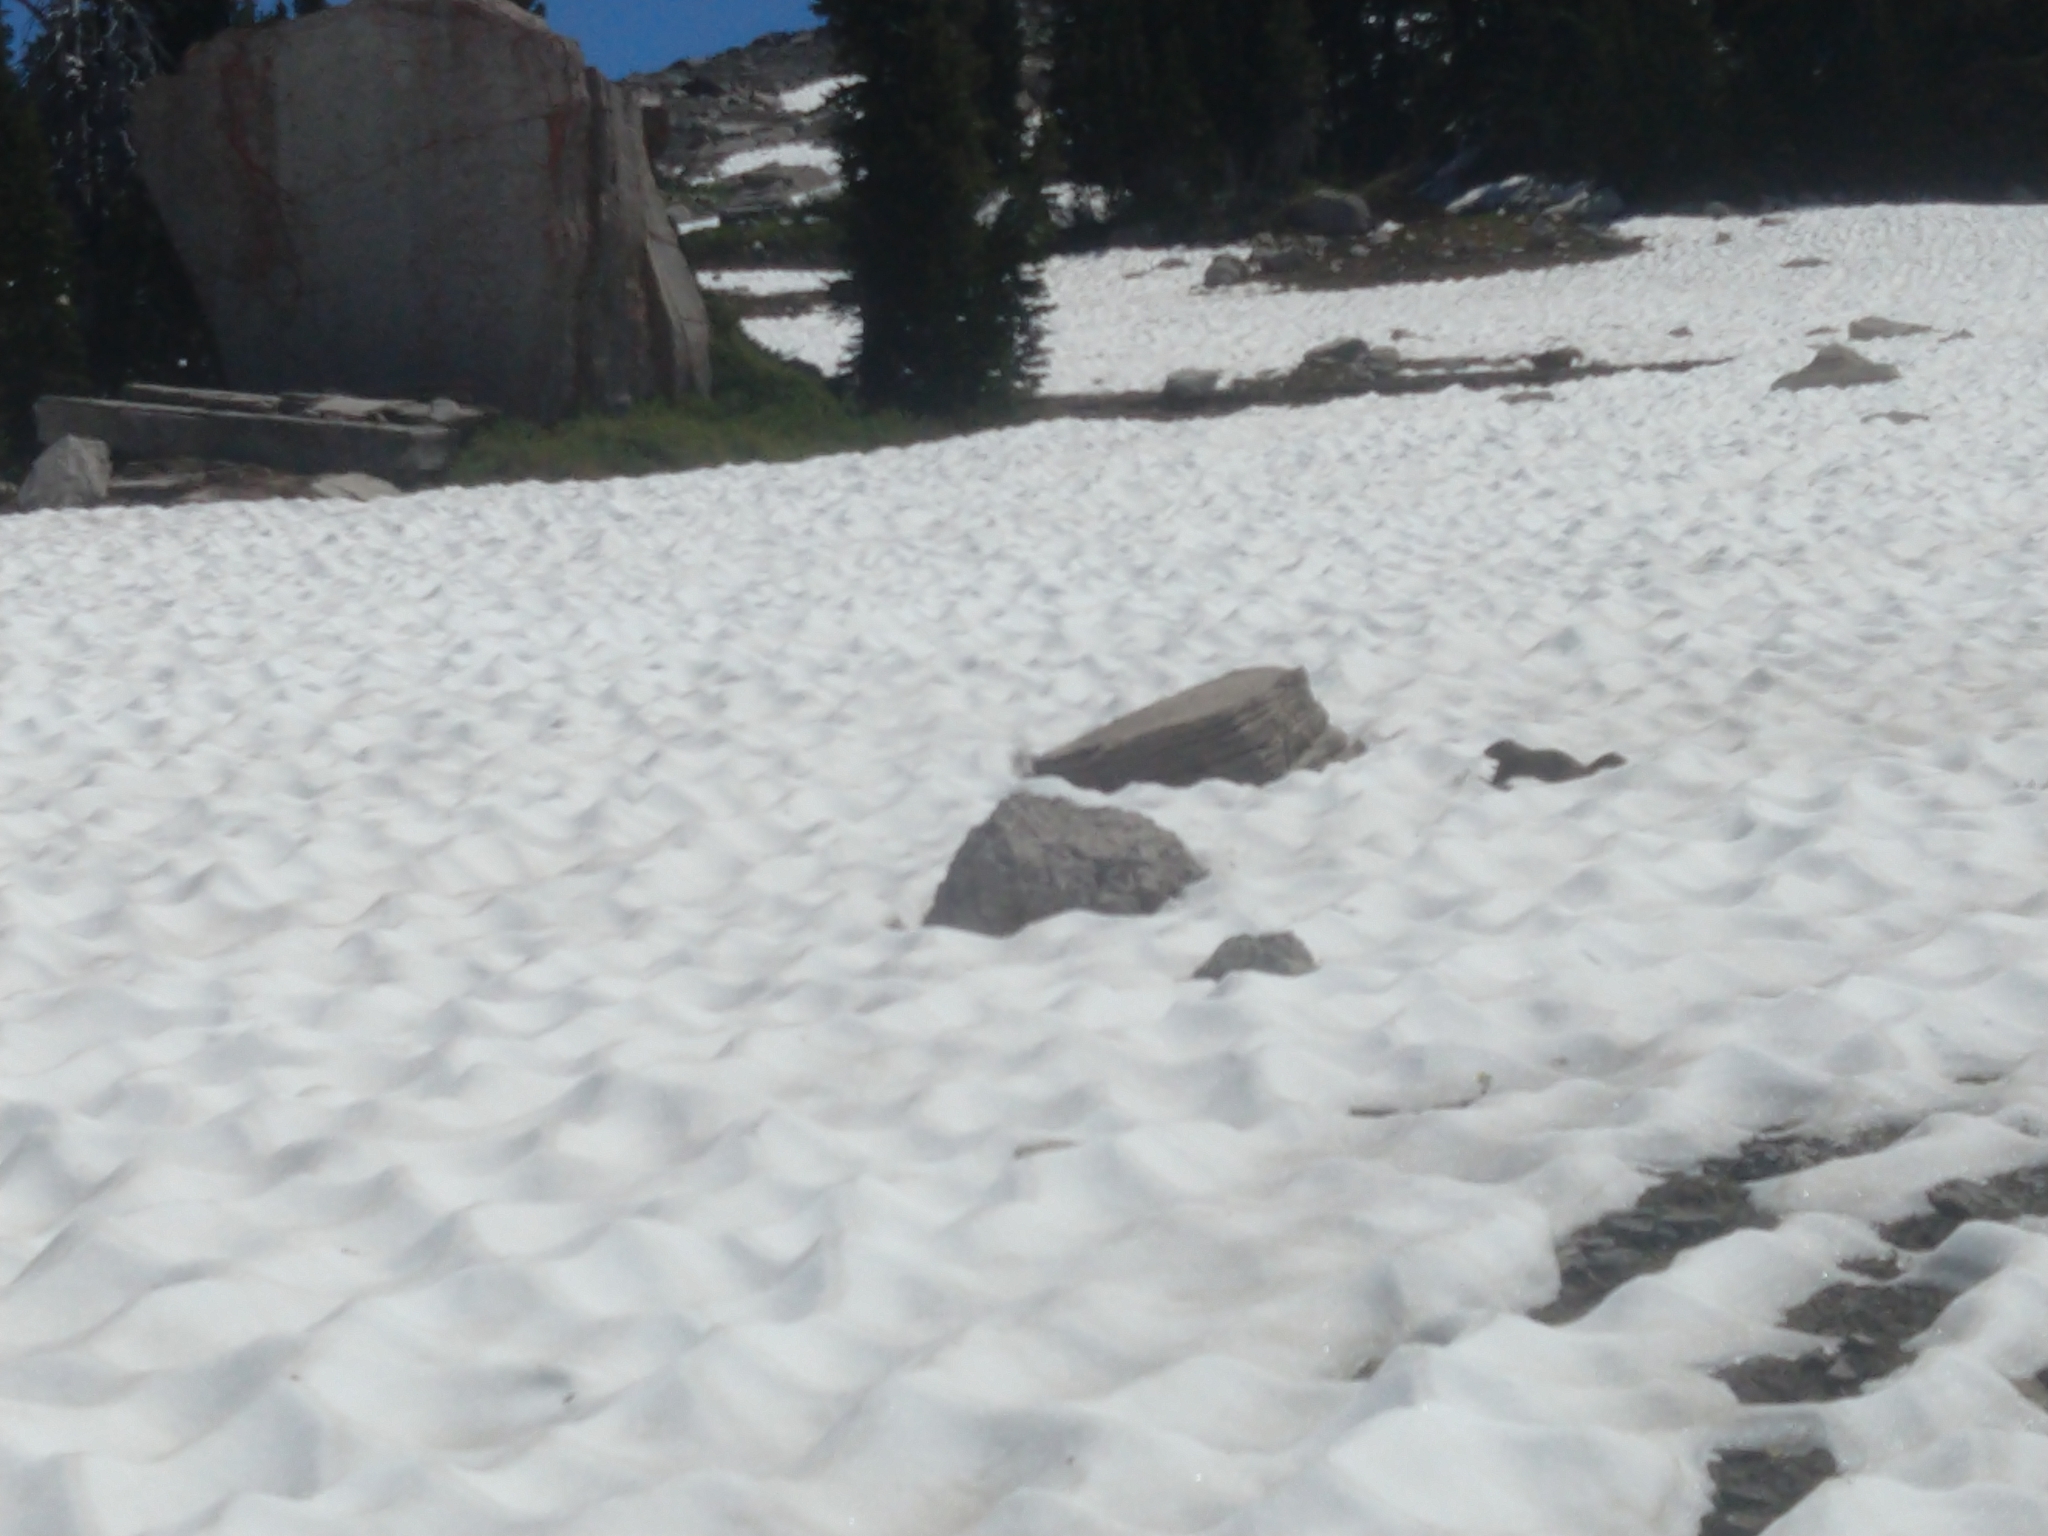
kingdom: Animalia
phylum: Chordata
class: Mammalia
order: Rodentia
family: Sciuridae
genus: Marmota
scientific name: Marmota flaviventris
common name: Yellow-bellied marmot
